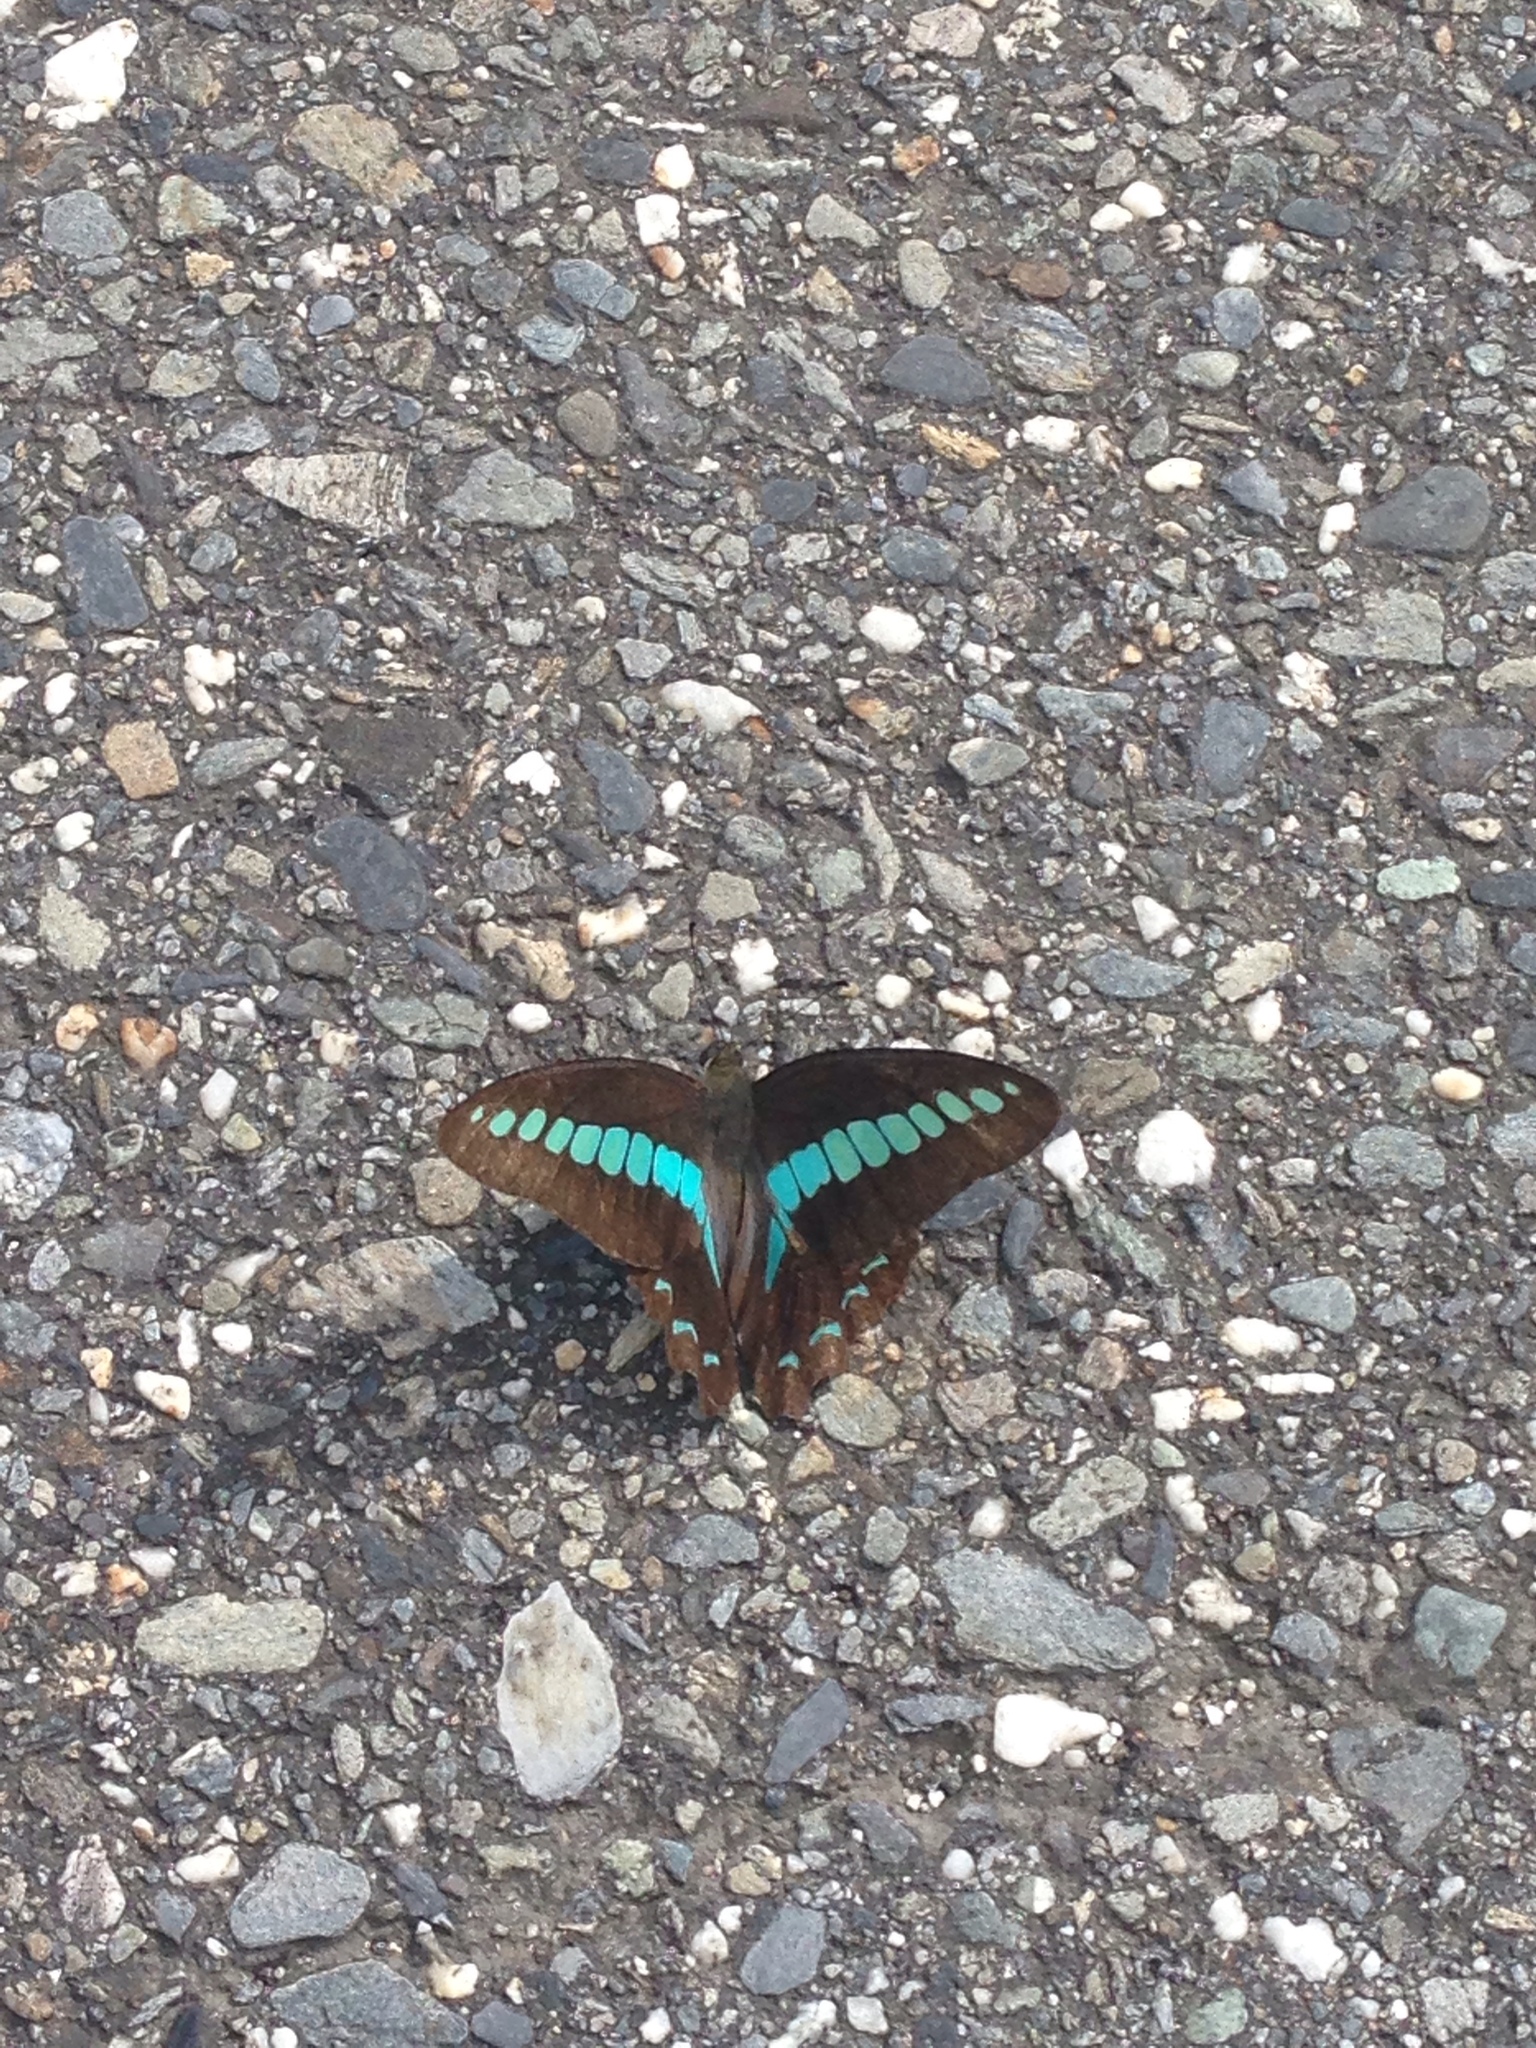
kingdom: Fungi
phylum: Ascomycota
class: Sordariomycetes
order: Microascales
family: Microascaceae
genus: Graphium
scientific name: Graphium sarpedon
